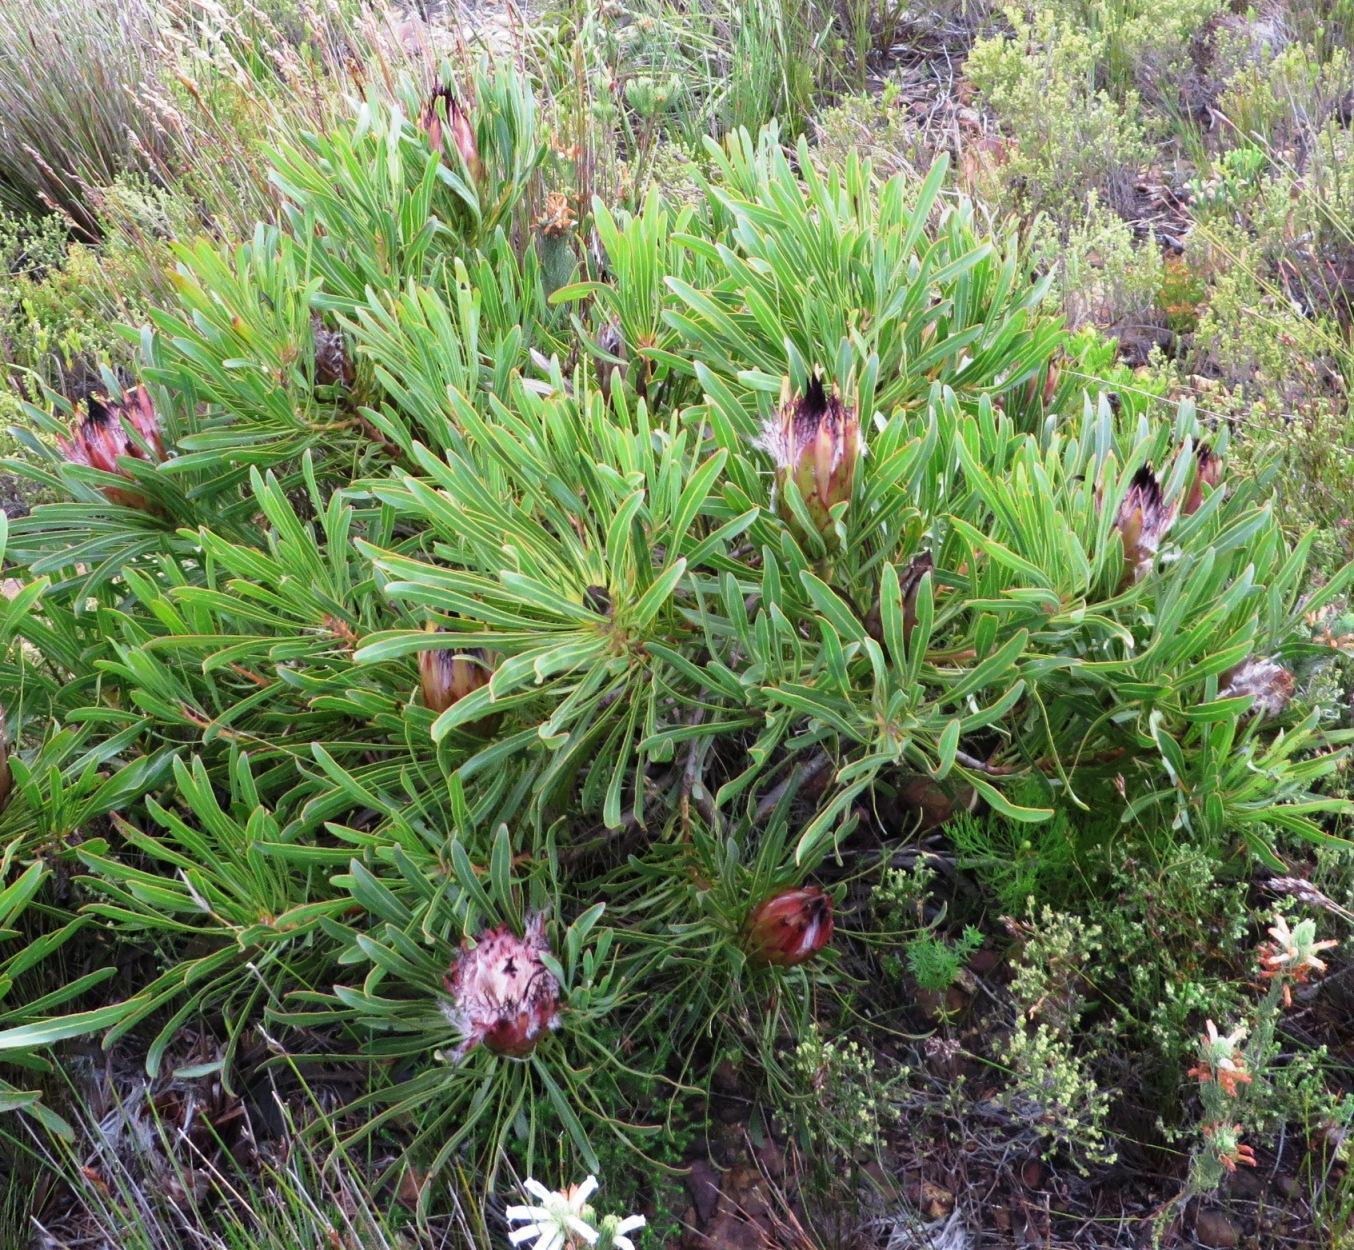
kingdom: Plantae
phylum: Tracheophyta
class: Magnoliopsida
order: Proteales
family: Proteaceae
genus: Protea
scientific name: Protea longifolia
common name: Long-leaf sugarbush
